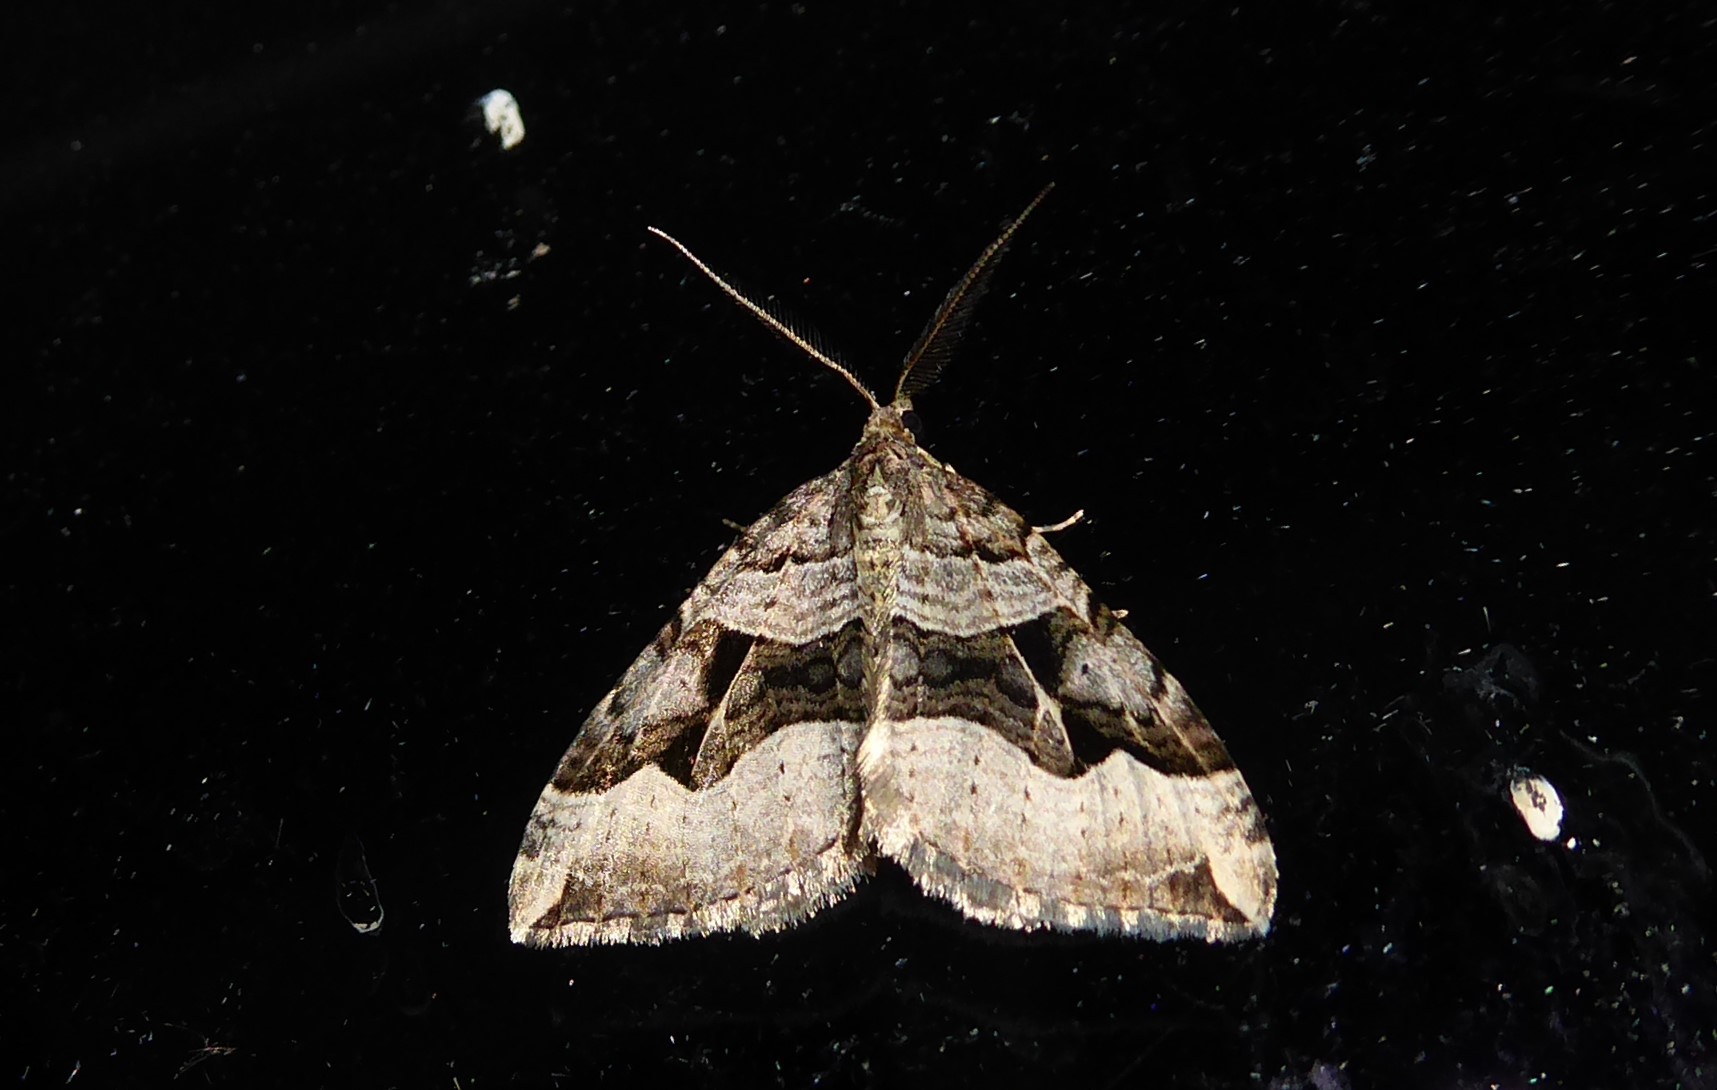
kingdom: Animalia
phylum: Arthropoda
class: Insecta
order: Lepidoptera
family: Geometridae
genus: Xanthorhoe
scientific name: Xanthorhoe semifissata
